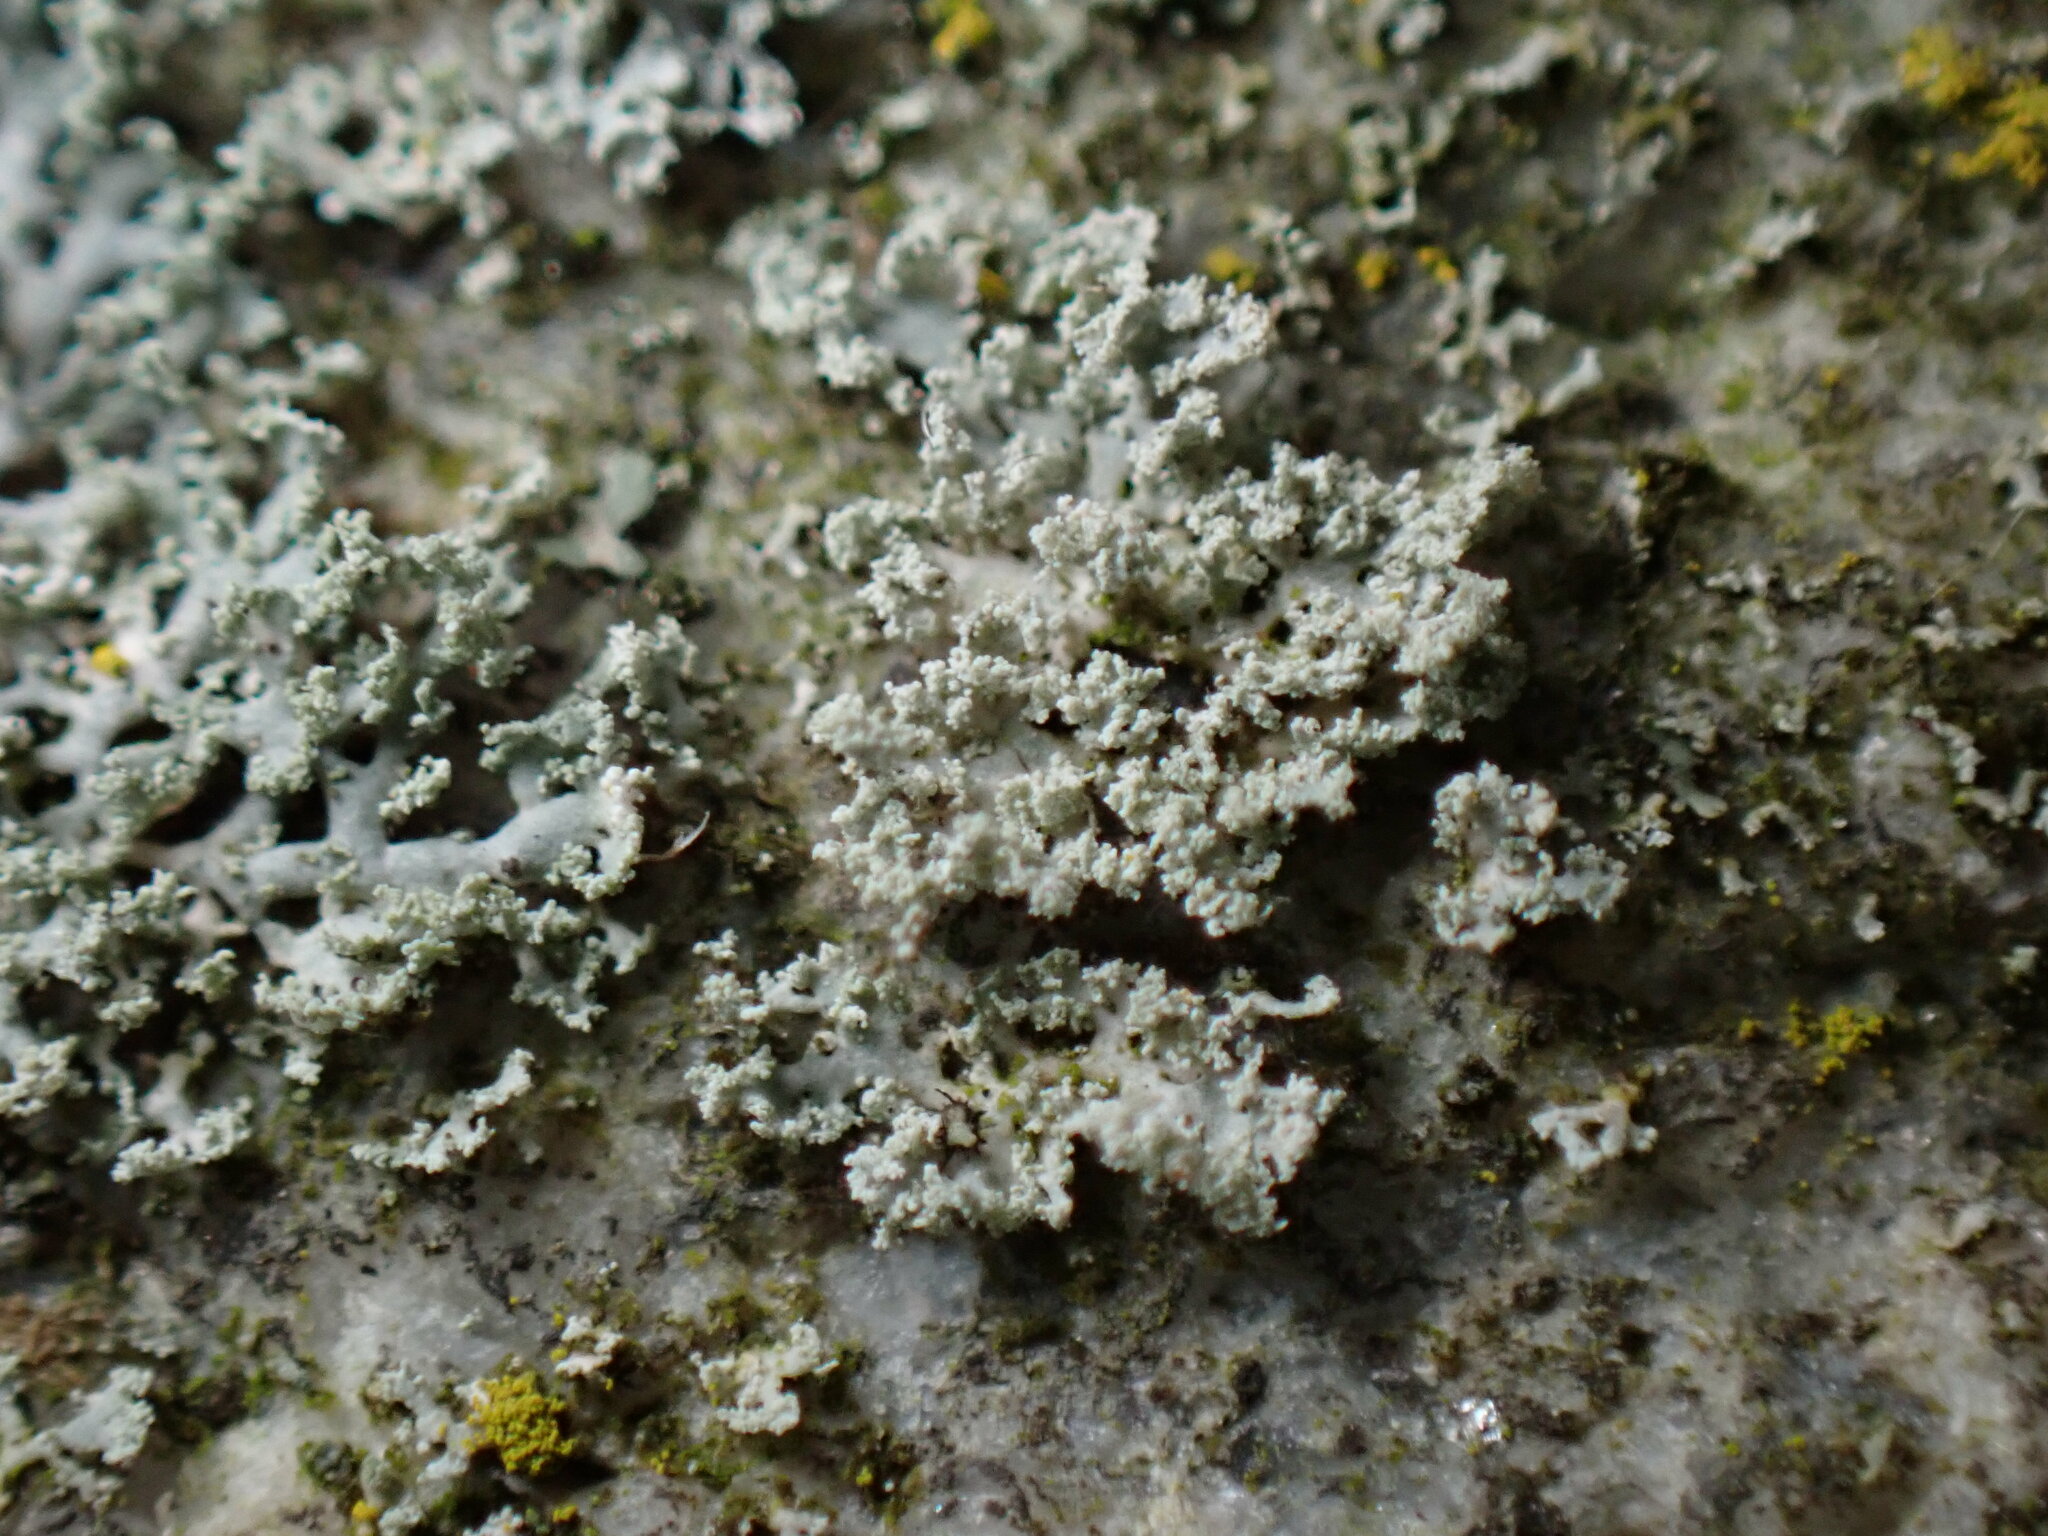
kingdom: Fungi
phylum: Basidiomycota
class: Agaricomycetes
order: Corticiales
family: Corticiaceae
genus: Erythricium
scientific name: Erythricium aurantiacum
